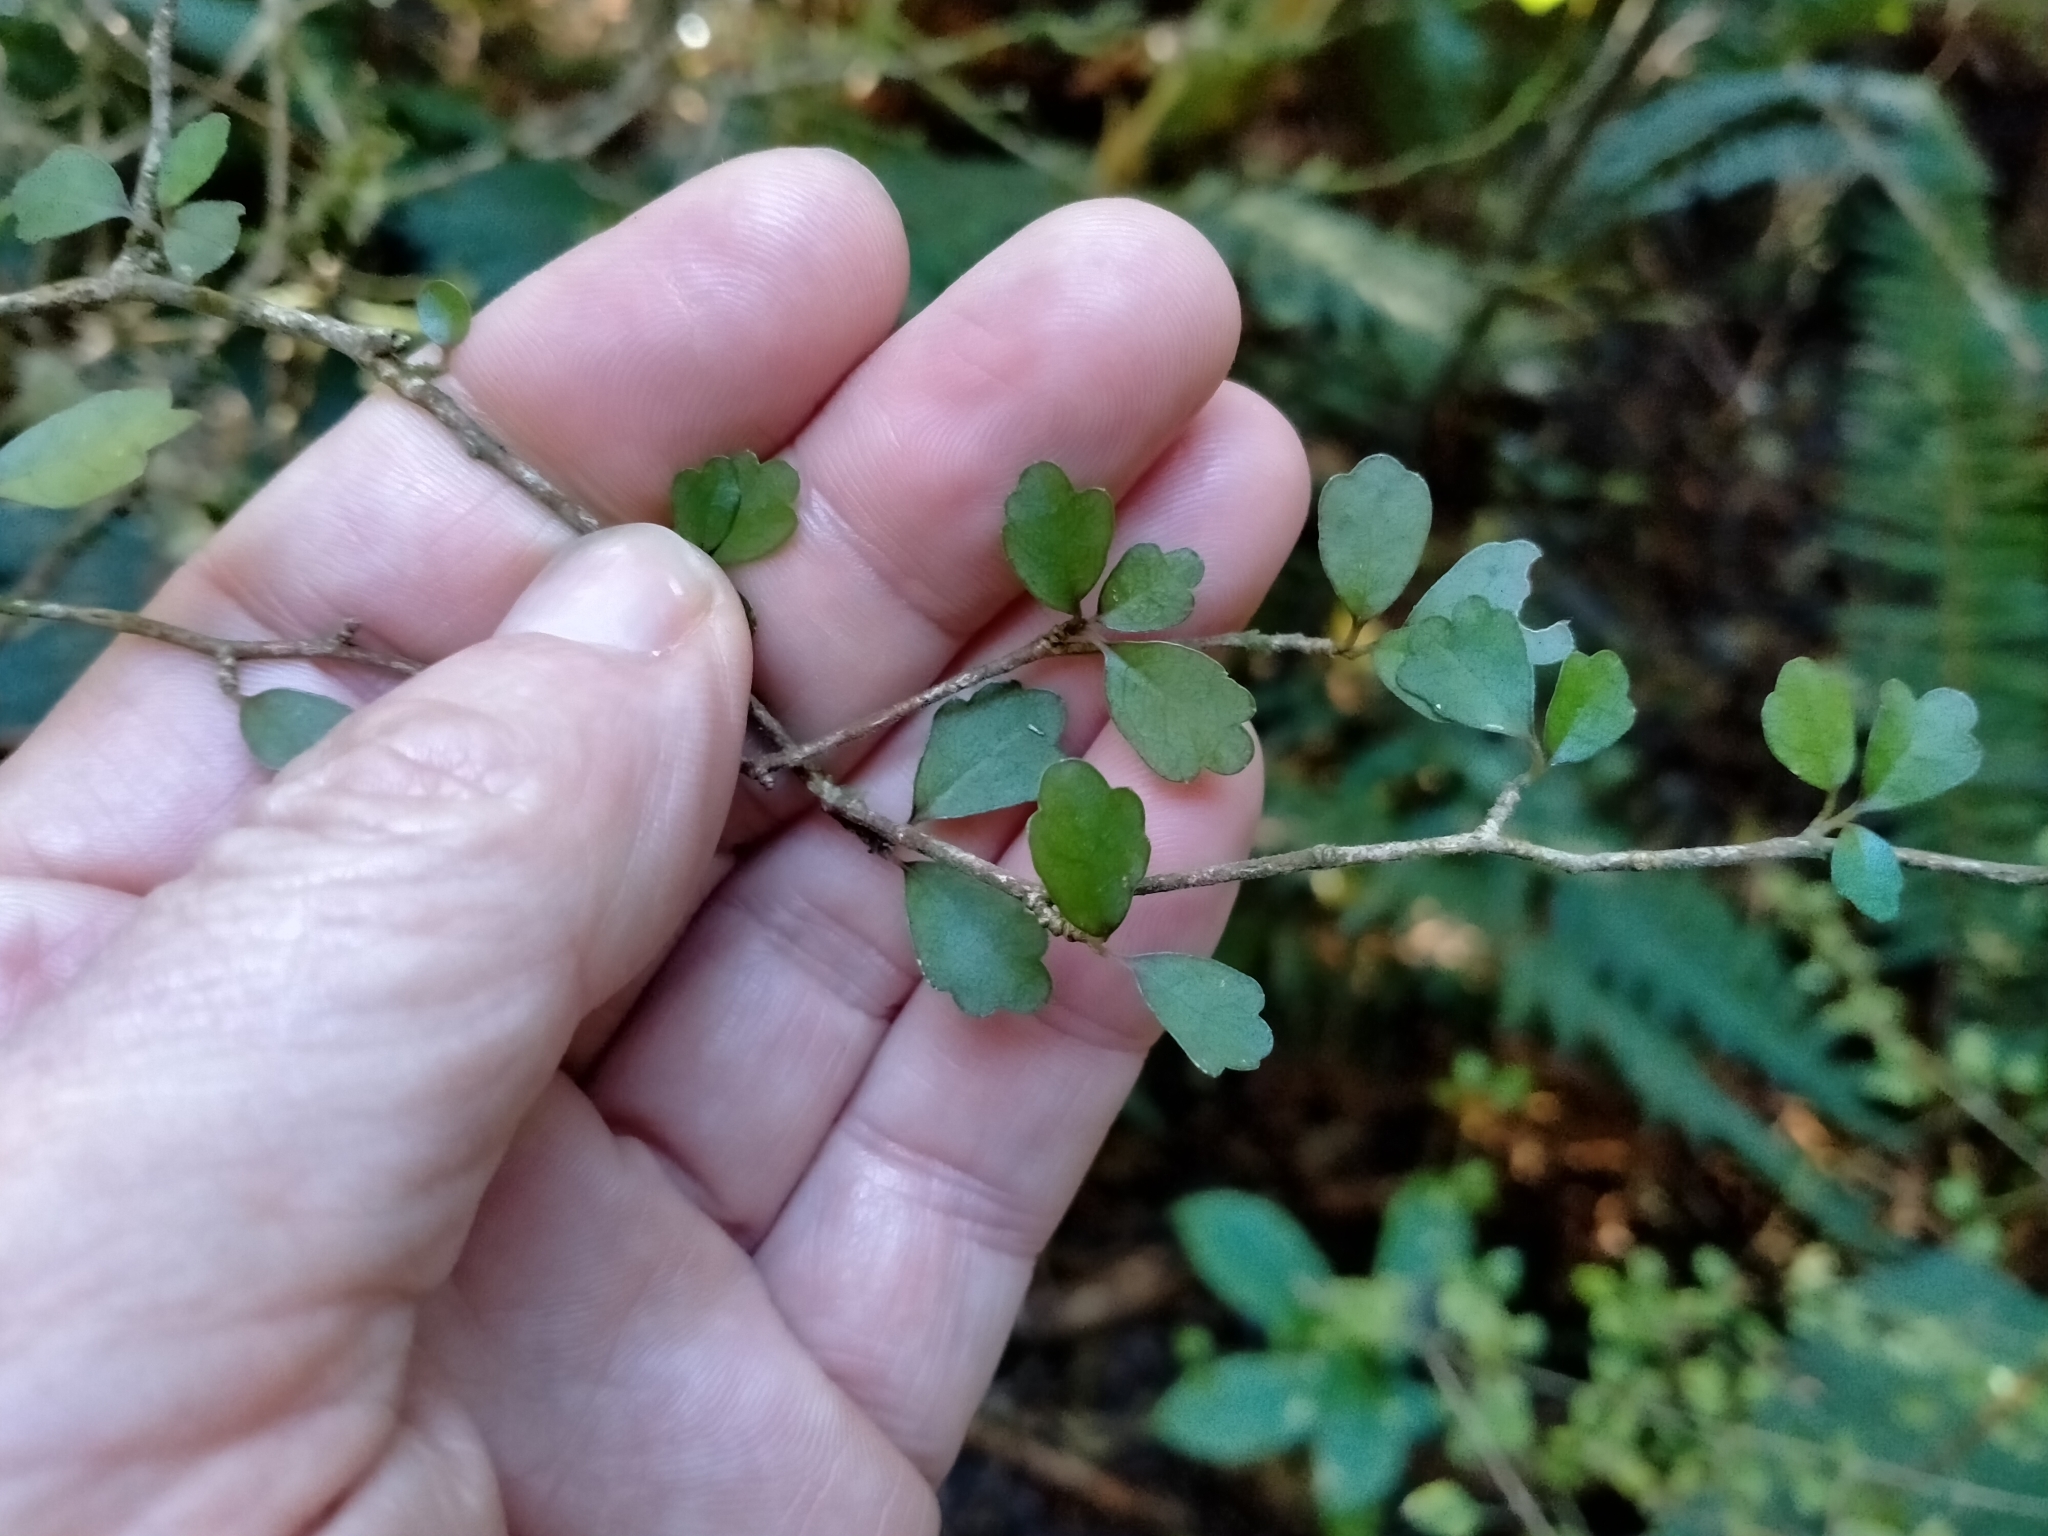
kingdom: Plantae
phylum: Tracheophyta
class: Magnoliopsida
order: Apiales
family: Pennantiaceae
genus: Pennantia
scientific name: Pennantia corymbosa
